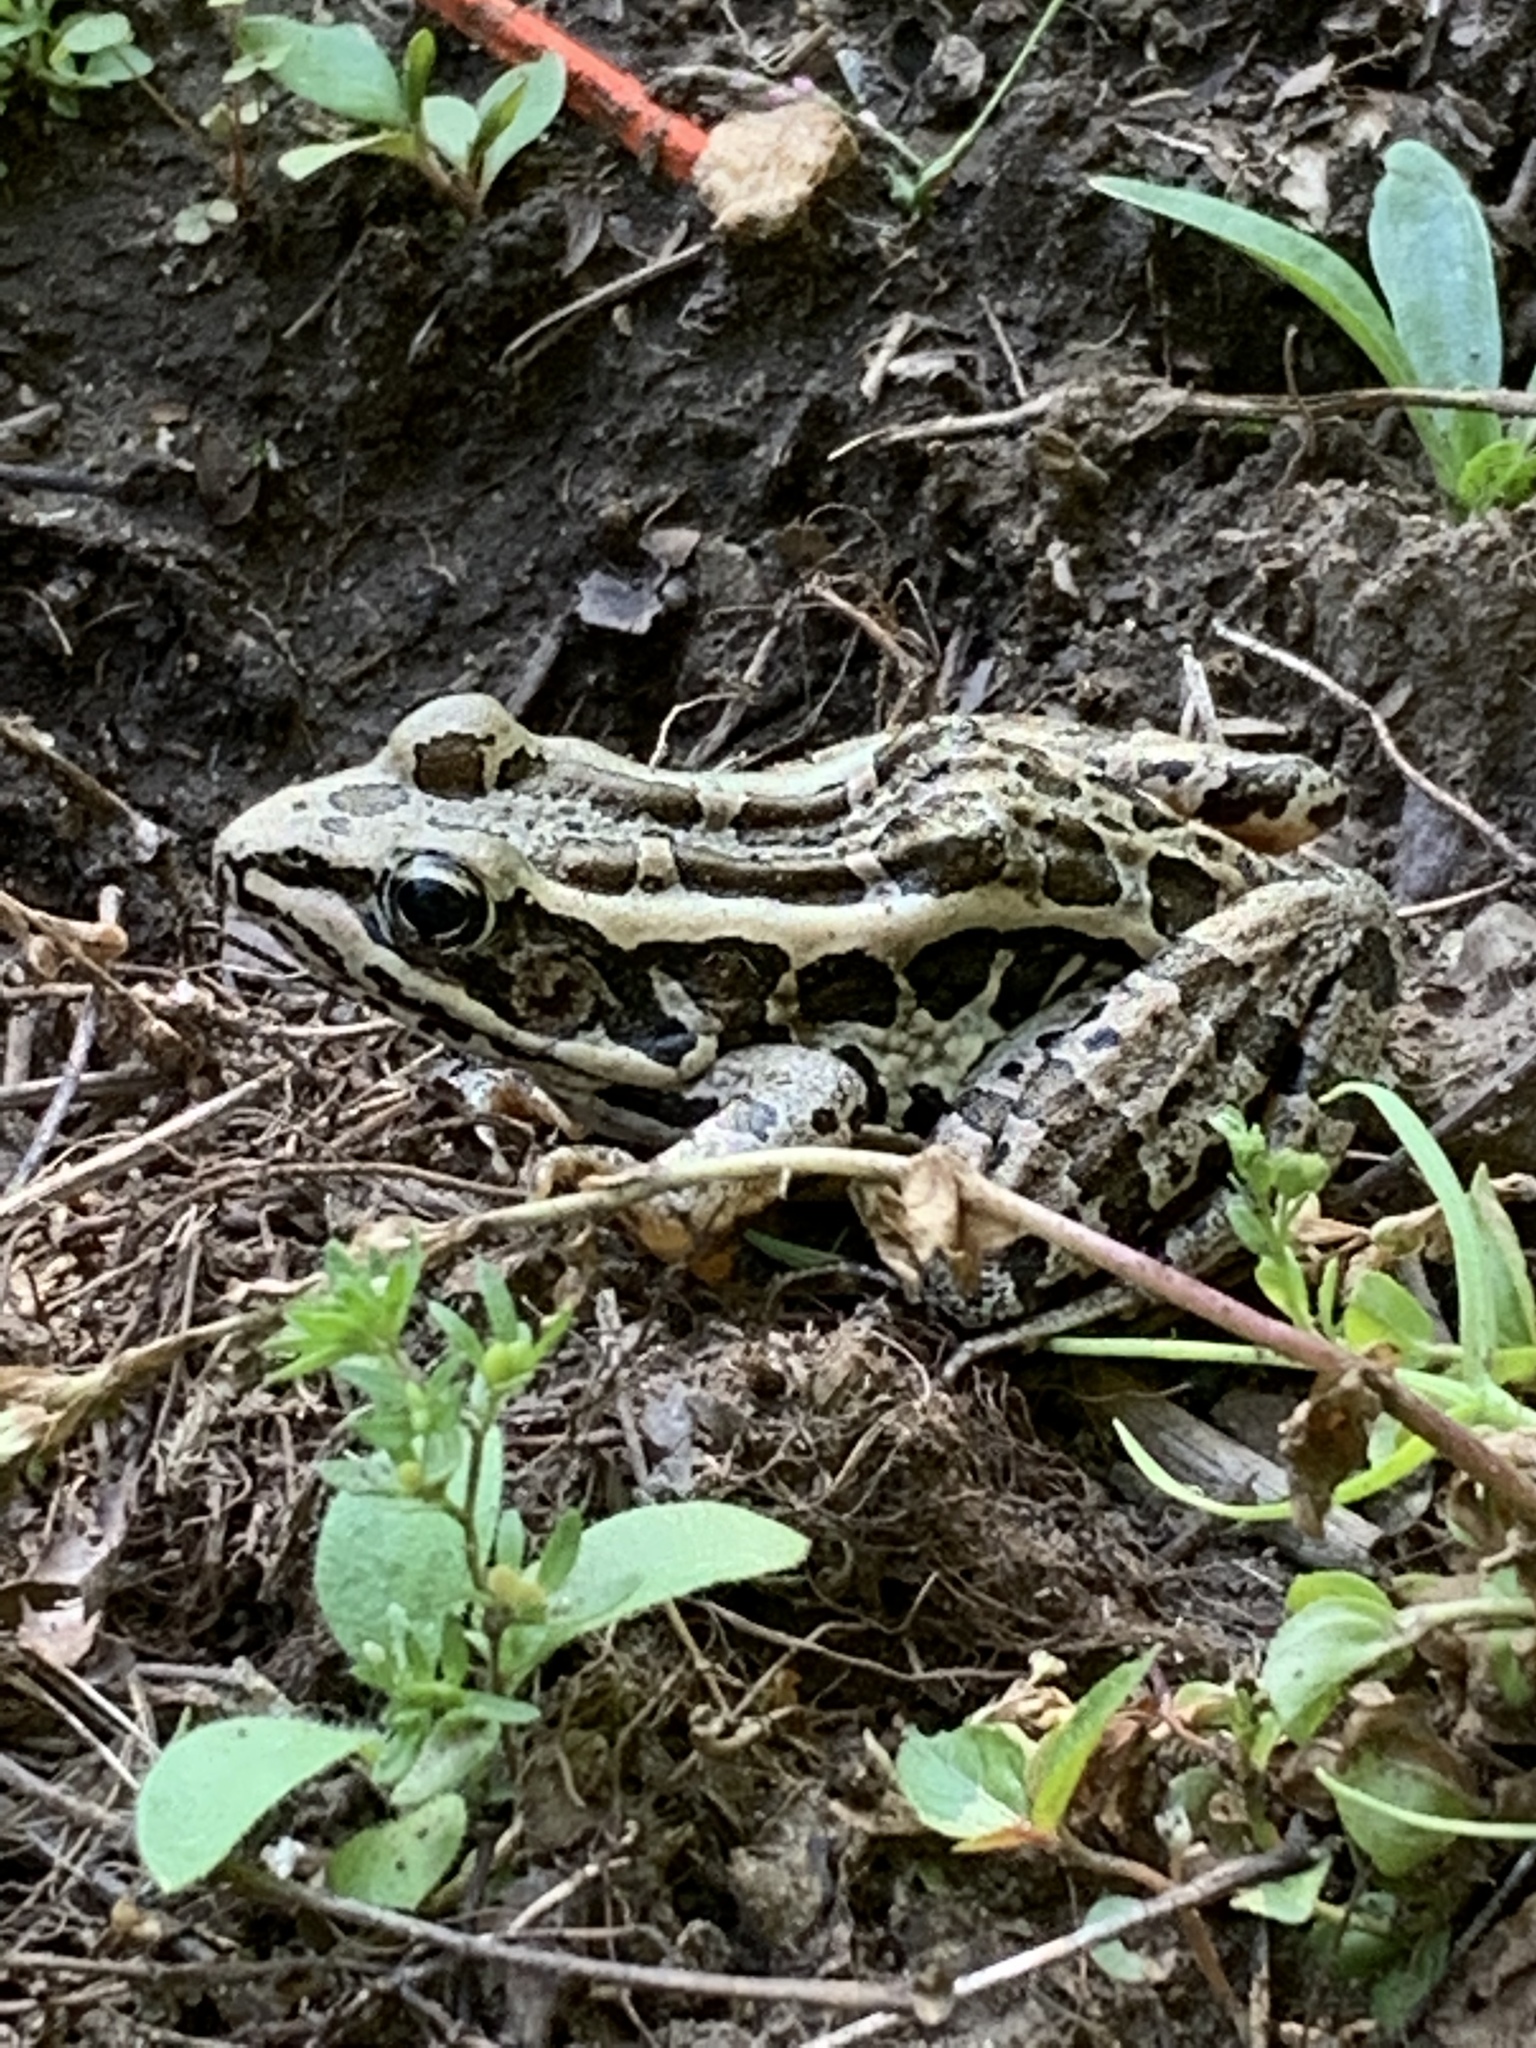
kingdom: Animalia
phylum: Chordata
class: Amphibia
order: Anura
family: Ranidae
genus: Lithobates
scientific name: Lithobates palustris
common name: Pickerel frog
